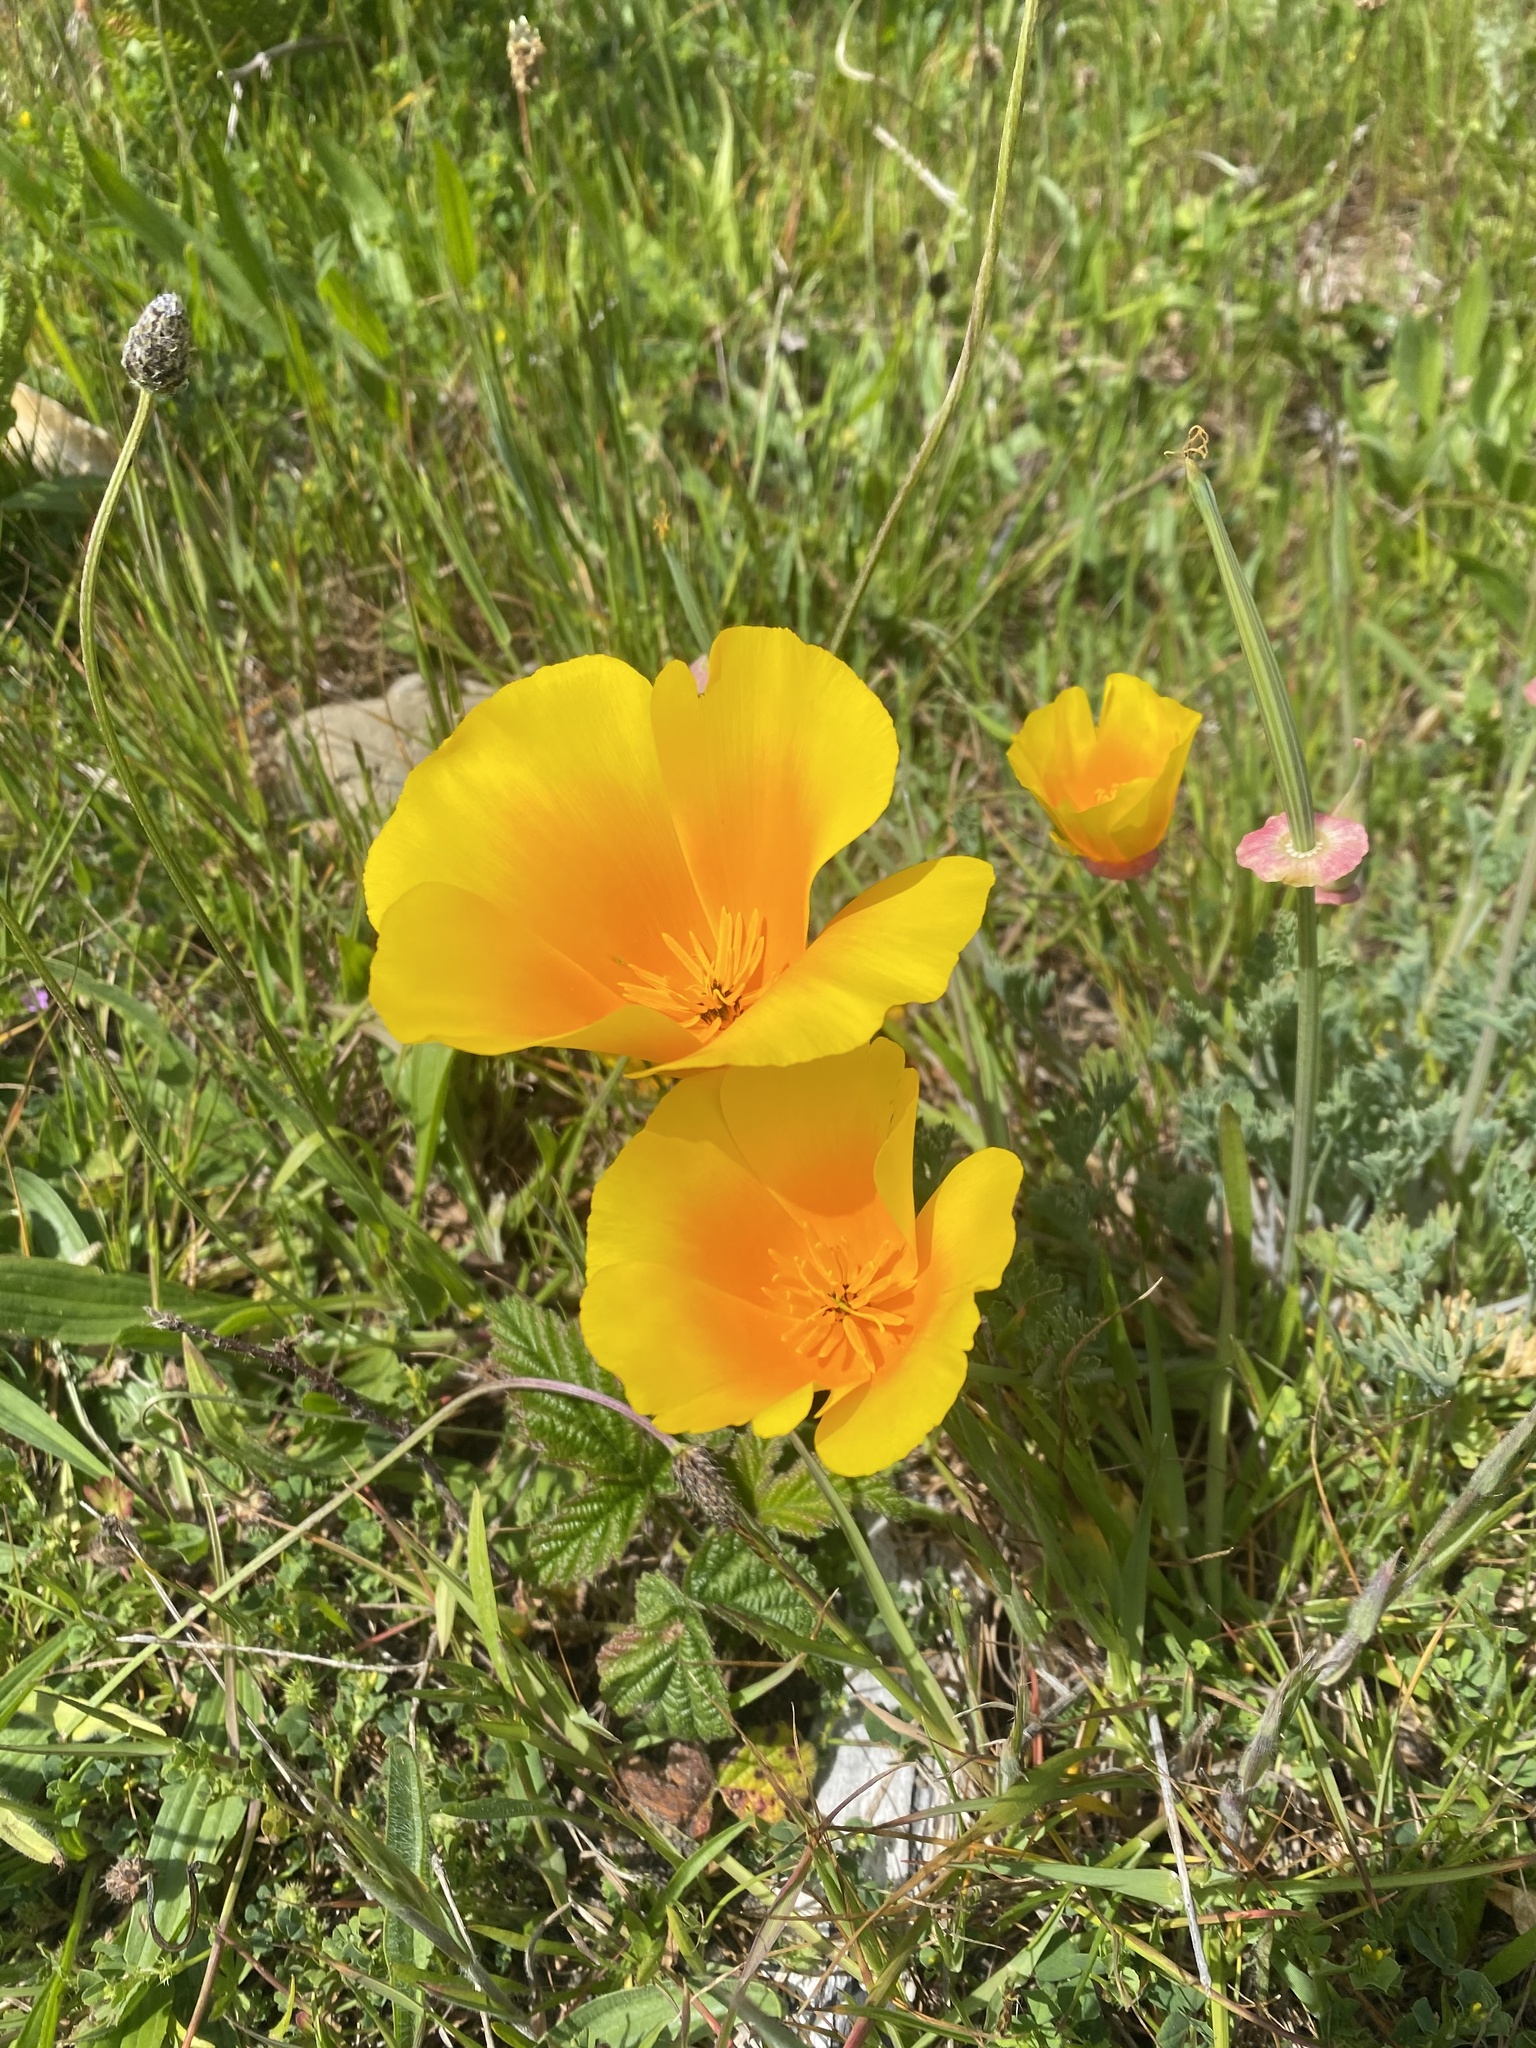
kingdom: Plantae
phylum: Tracheophyta
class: Magnoliopsida
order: Ranunculales
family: Papaveraceae
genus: Eschscholzia
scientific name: Eschscholzia californica
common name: California poppy
